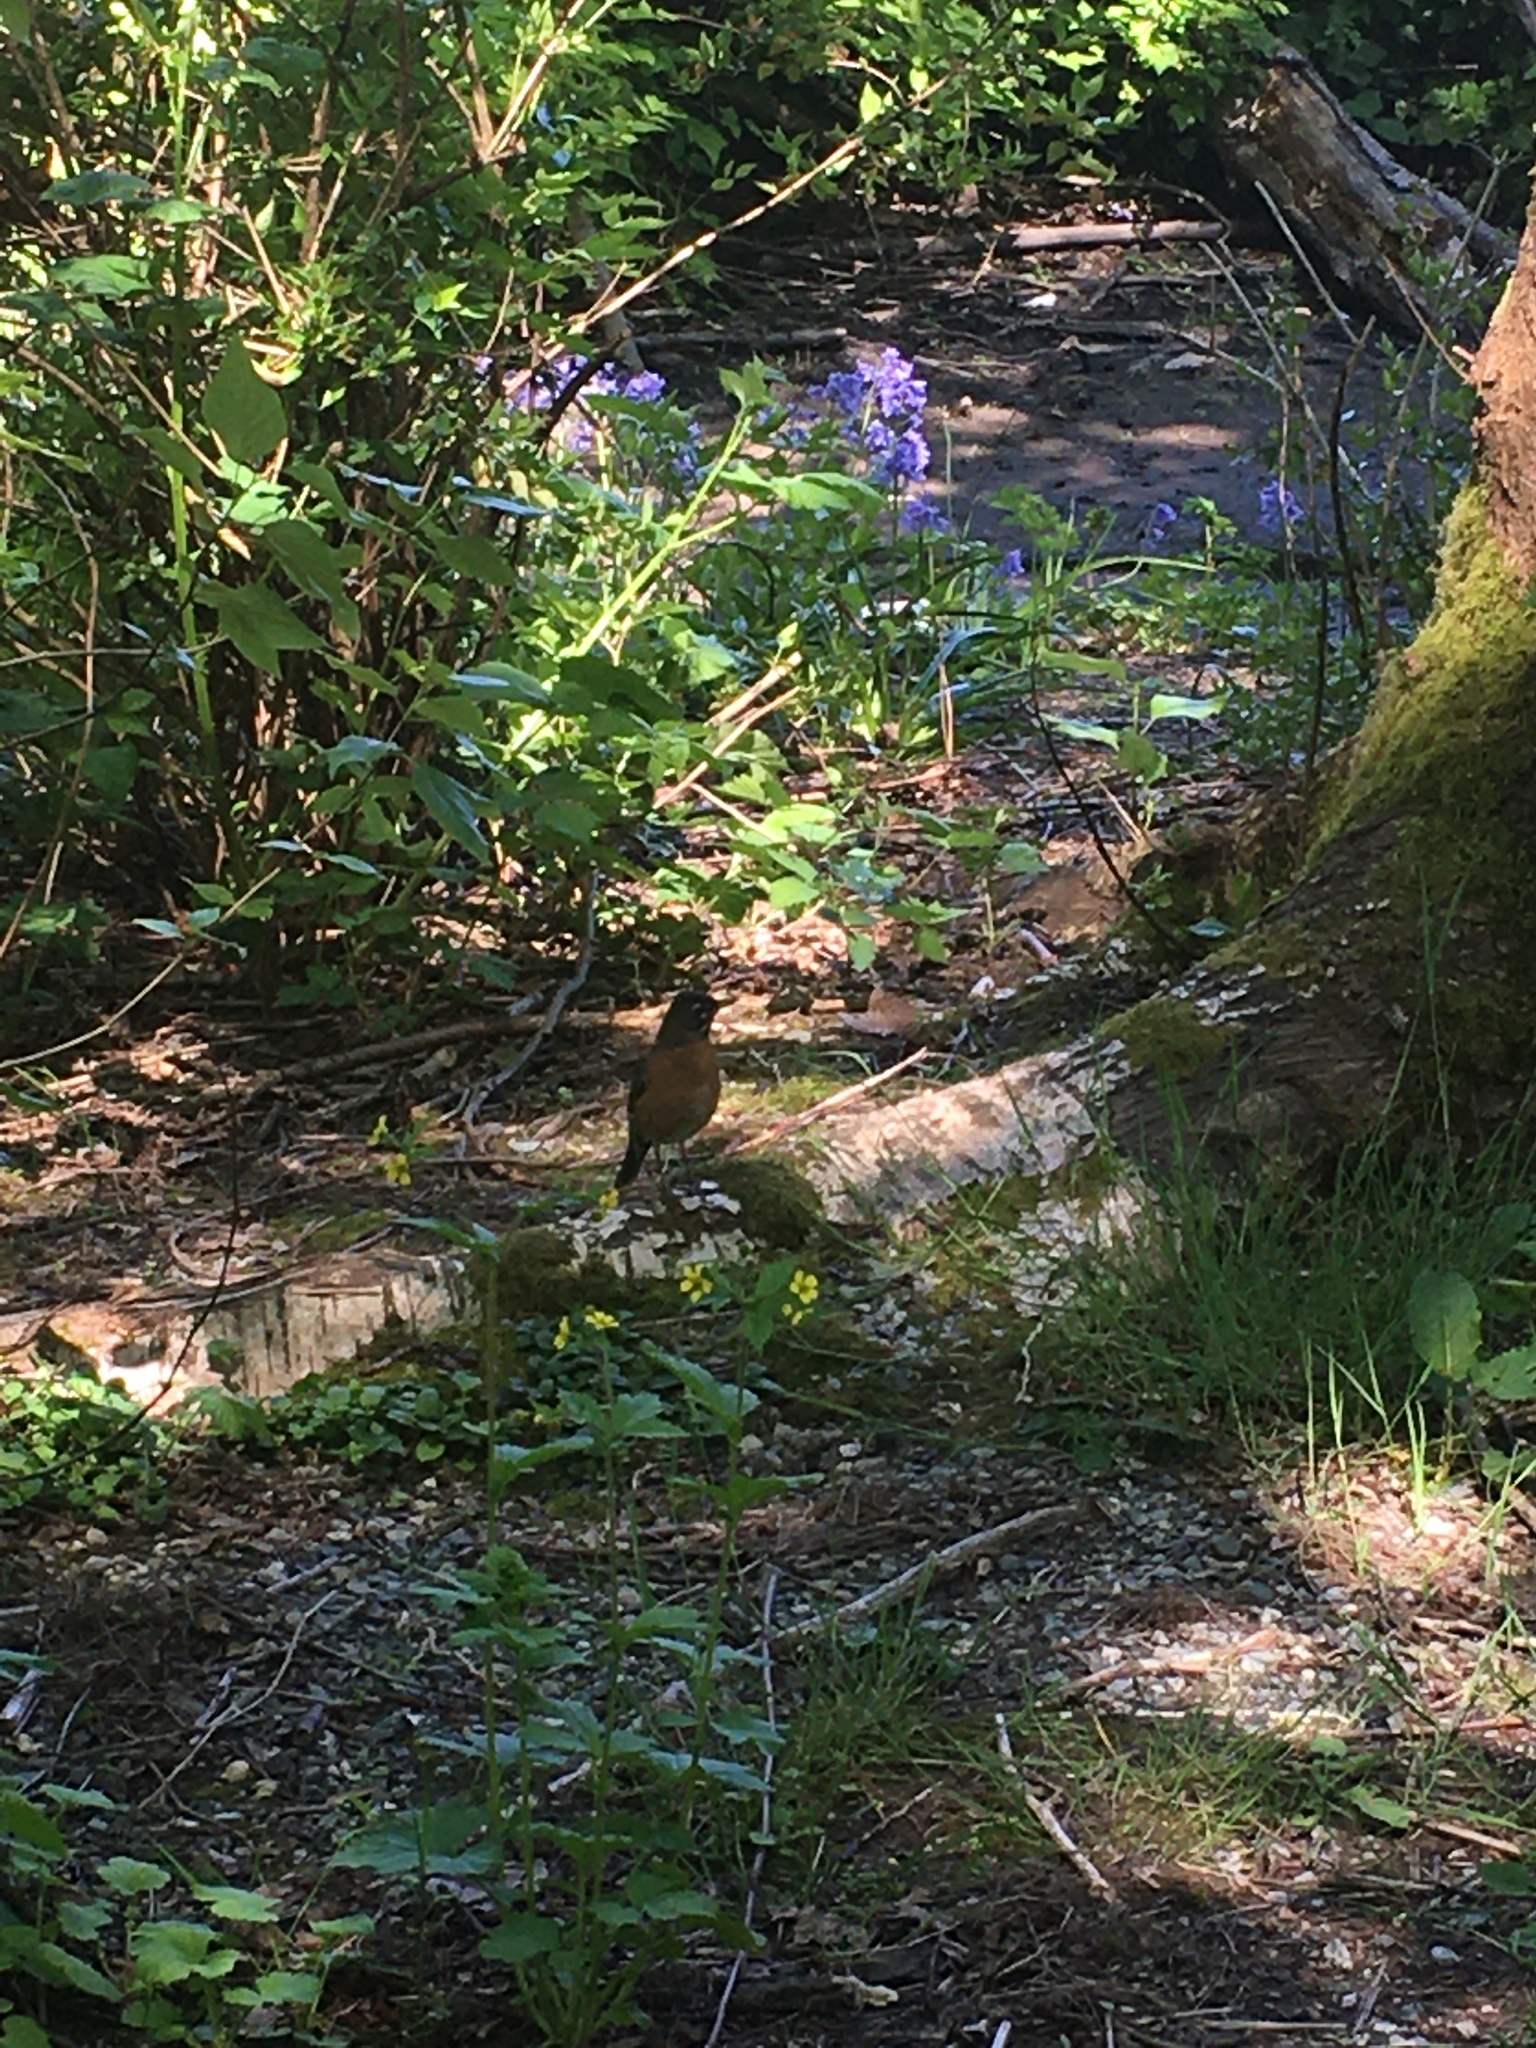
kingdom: Animalia
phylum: Chordata
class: Aves
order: Passeriformes
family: Turdidae
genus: Turdus
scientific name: Turdus migratorius
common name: American robin
